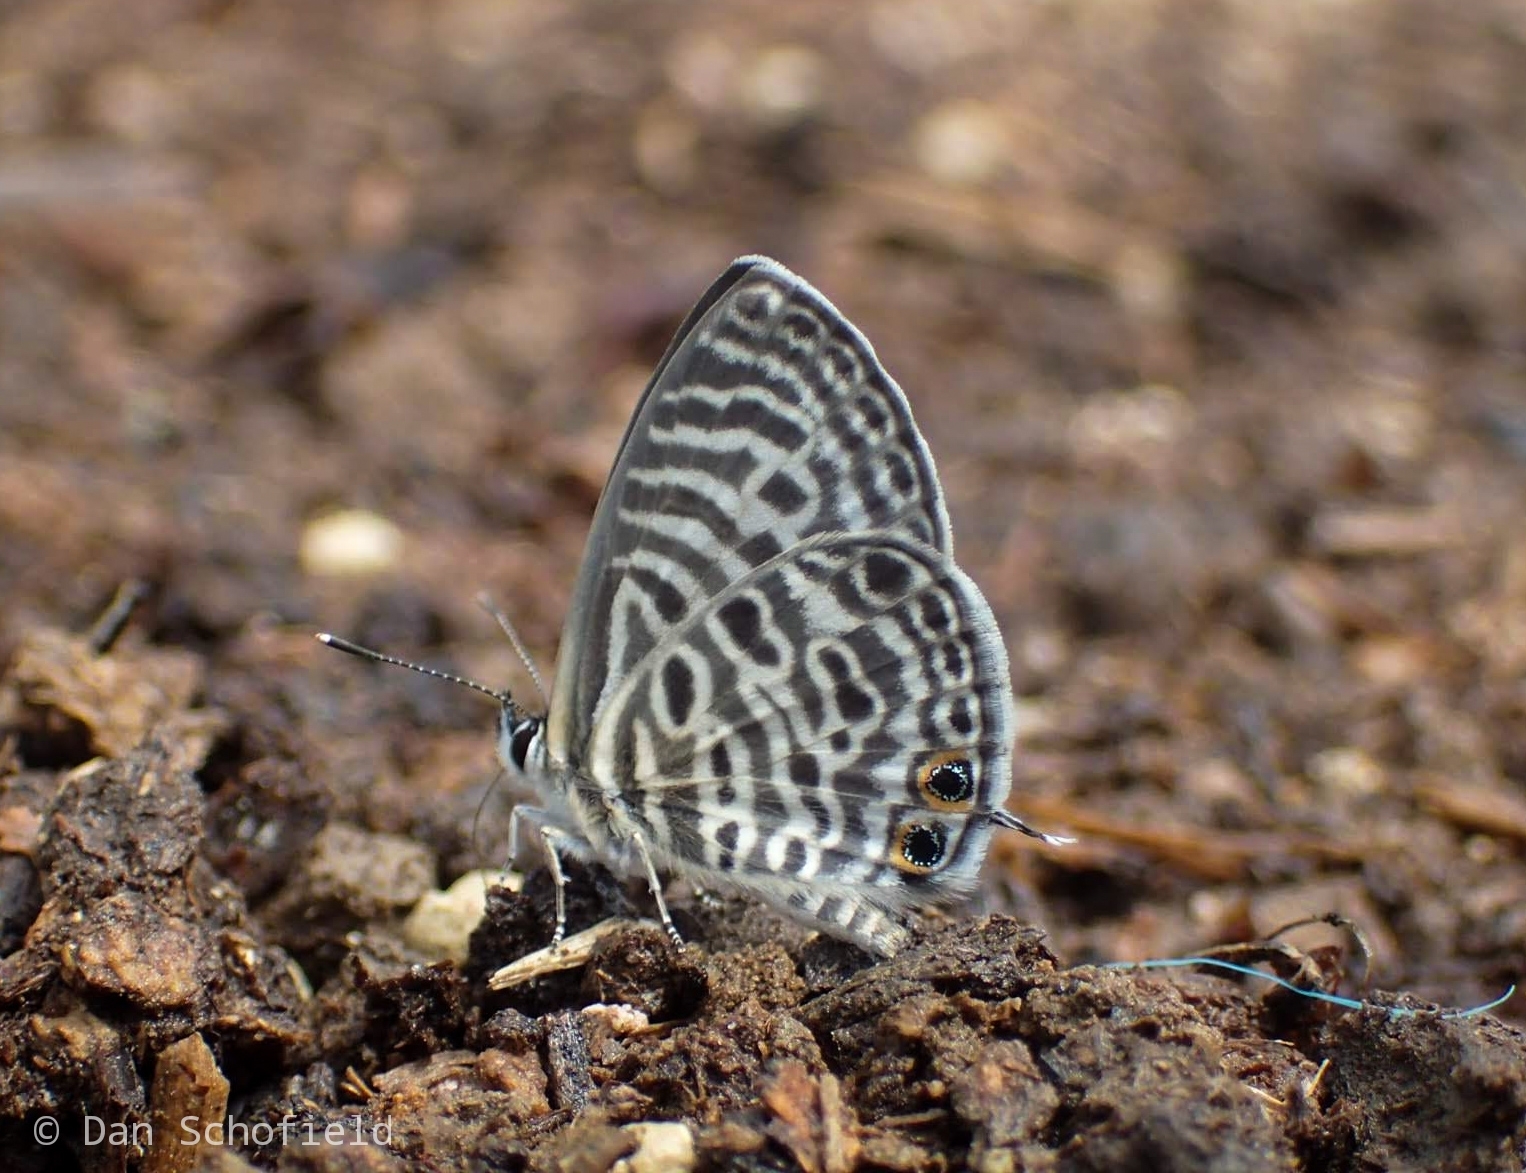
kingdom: Animalia
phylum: Arthropoda
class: Insecta
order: Lepidoptera
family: Lycaenidae
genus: Leptotes
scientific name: Leptotes plinius
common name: Zebra blue
